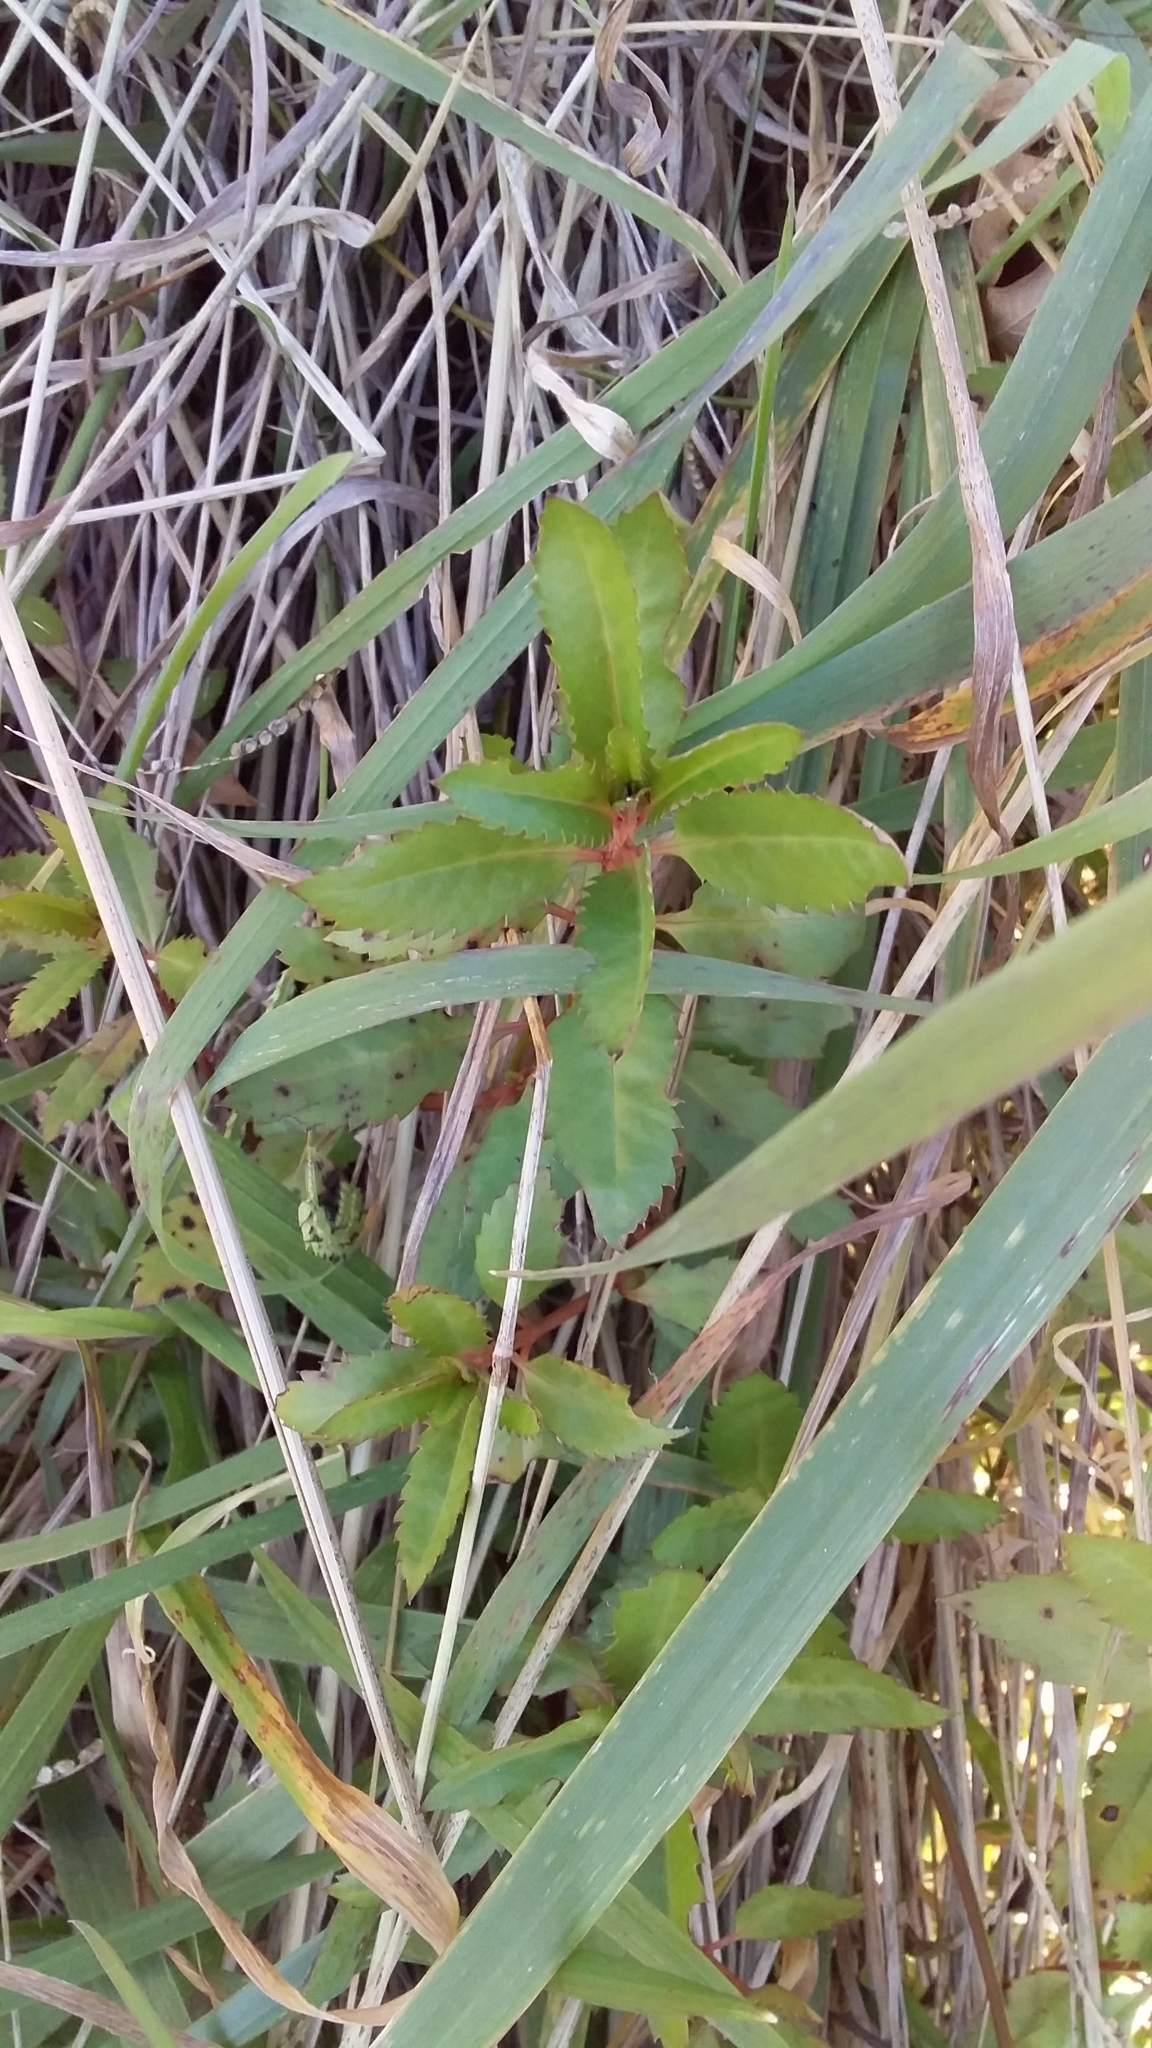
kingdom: Plantae
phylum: Tracheophyta
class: Magnoliopsida
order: Saxifragales
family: Haloragaceae
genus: Haloragis
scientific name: Haloragis erecta
